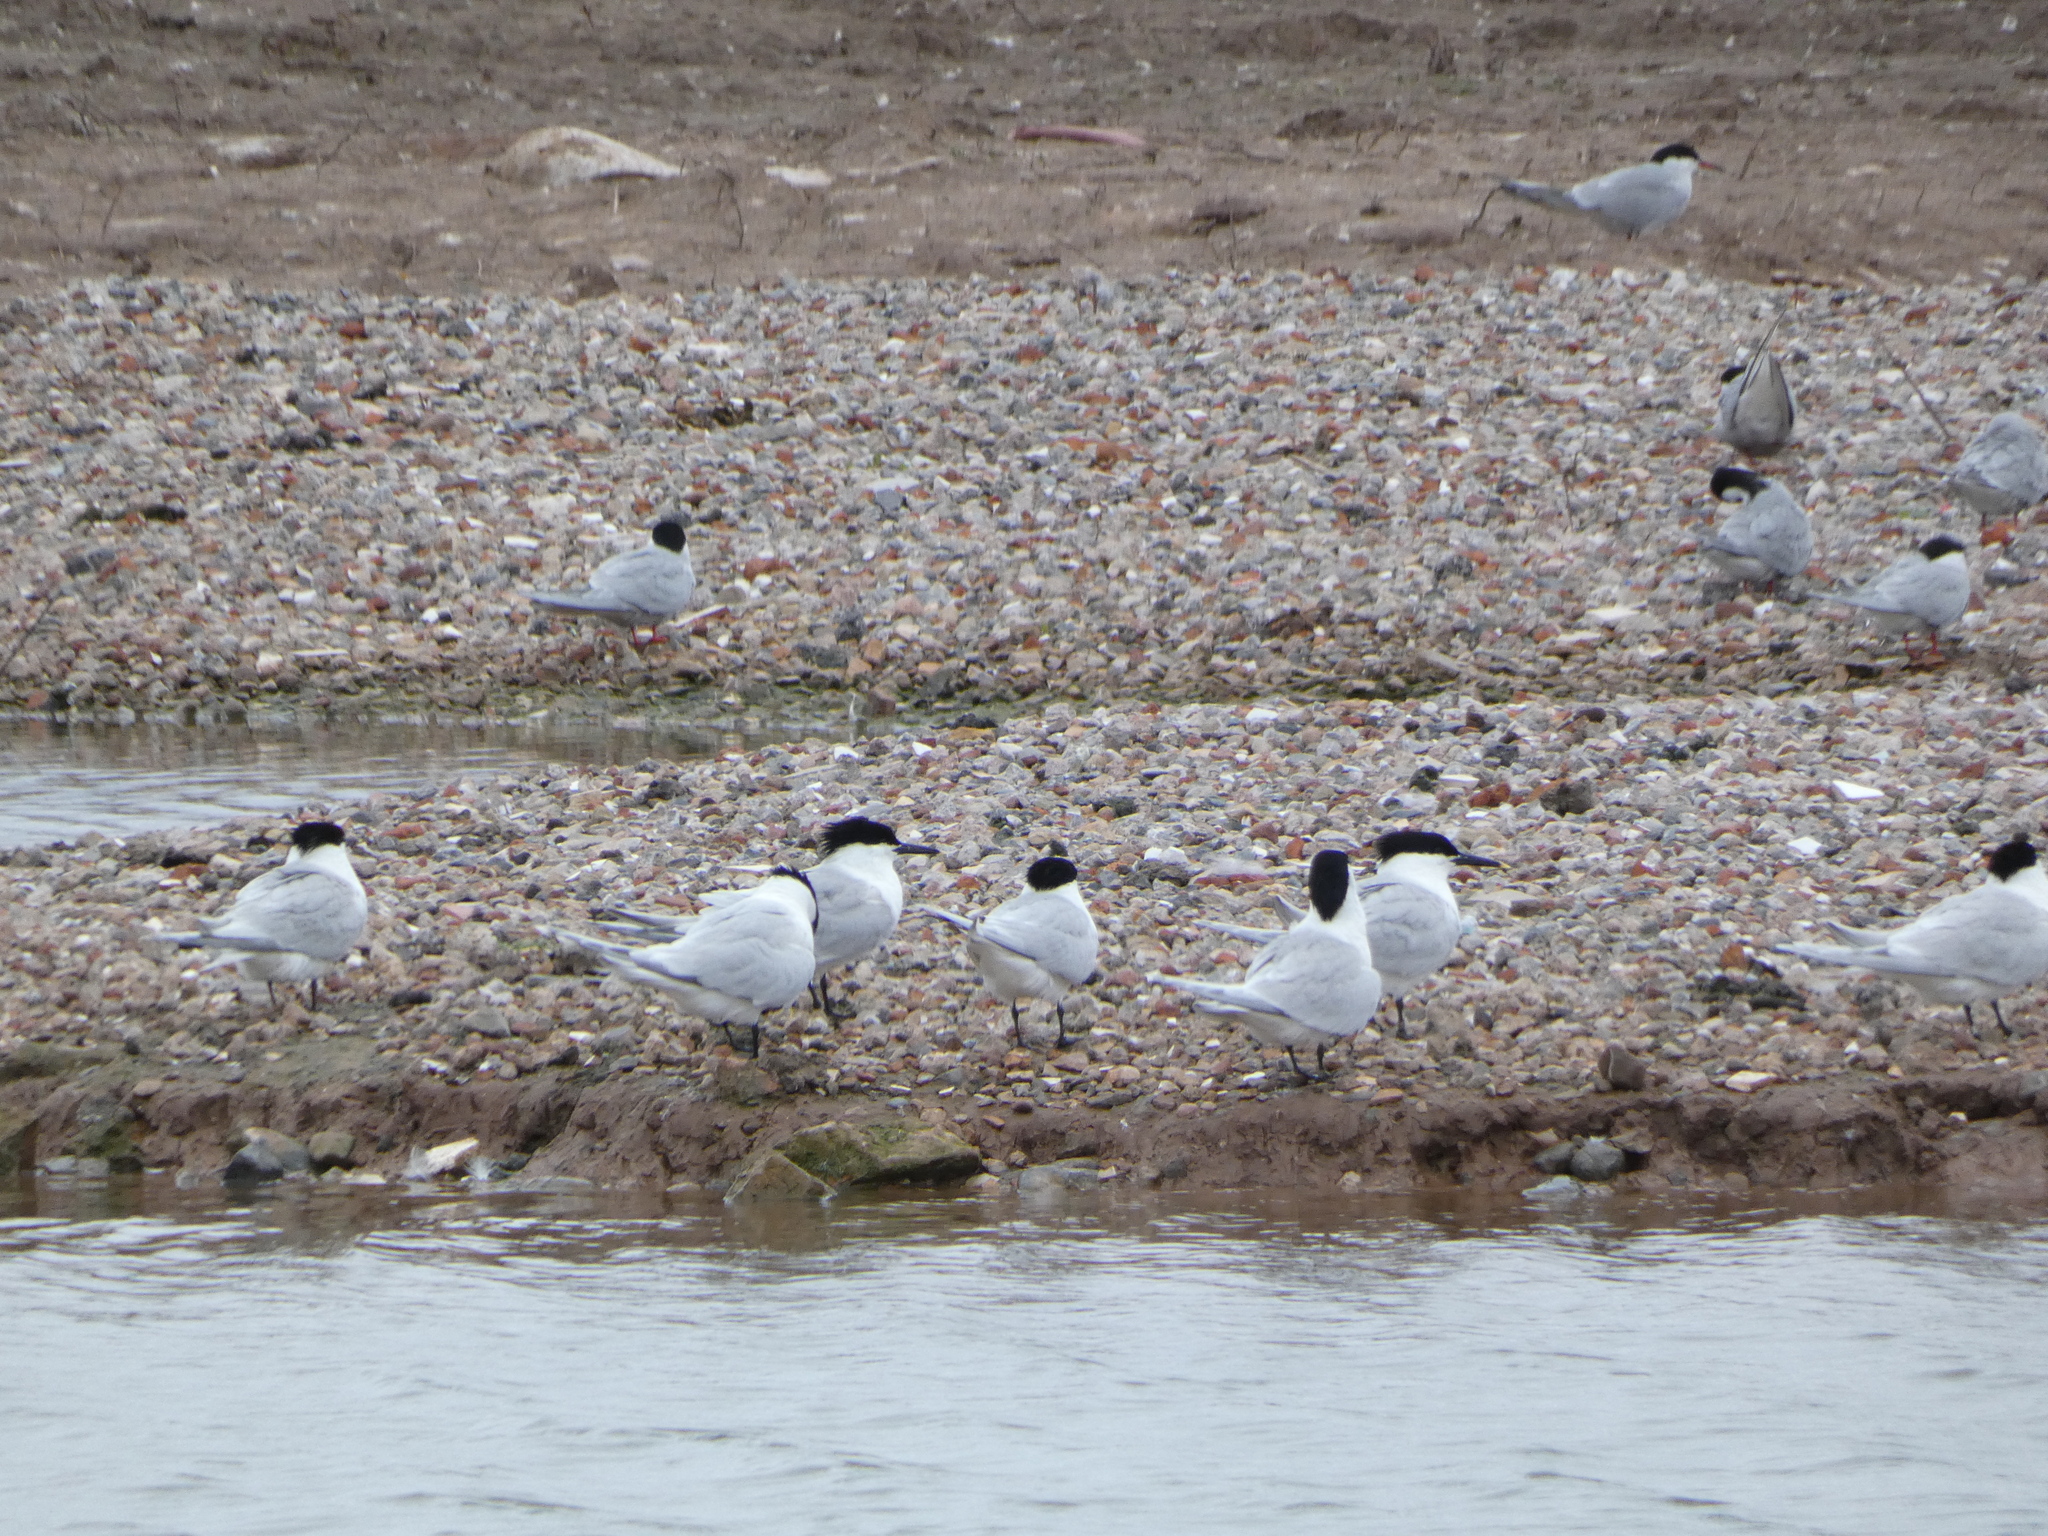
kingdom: Animalia
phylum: Chordata
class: Aves
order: Charadriiformes
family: Laridae
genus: Thalasseus
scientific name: Thalasseus sandvicensis
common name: Sandwich tern
